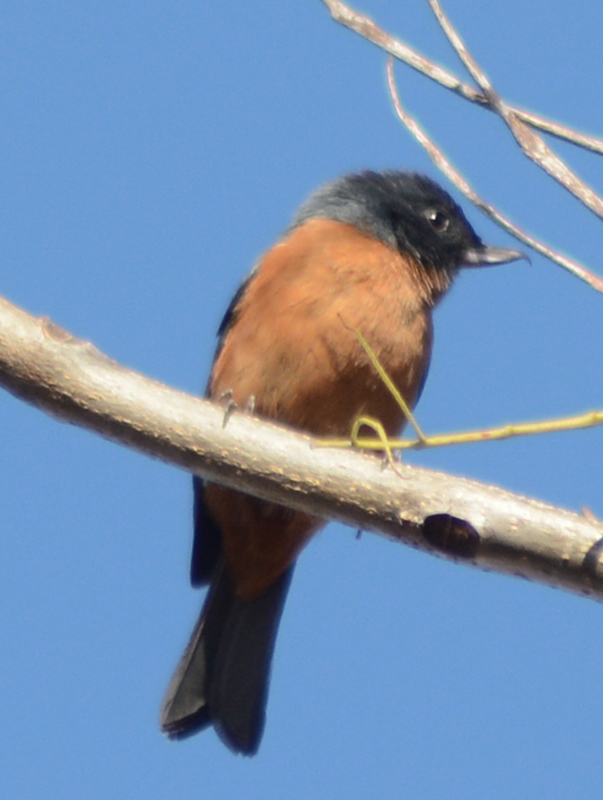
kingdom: Animalia
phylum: Chordata
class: Aves
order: Passeriformes
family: Thraupidae
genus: Diglossa
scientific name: Diglossa baritula
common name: Cinnamon-bellied flowerpiercer
